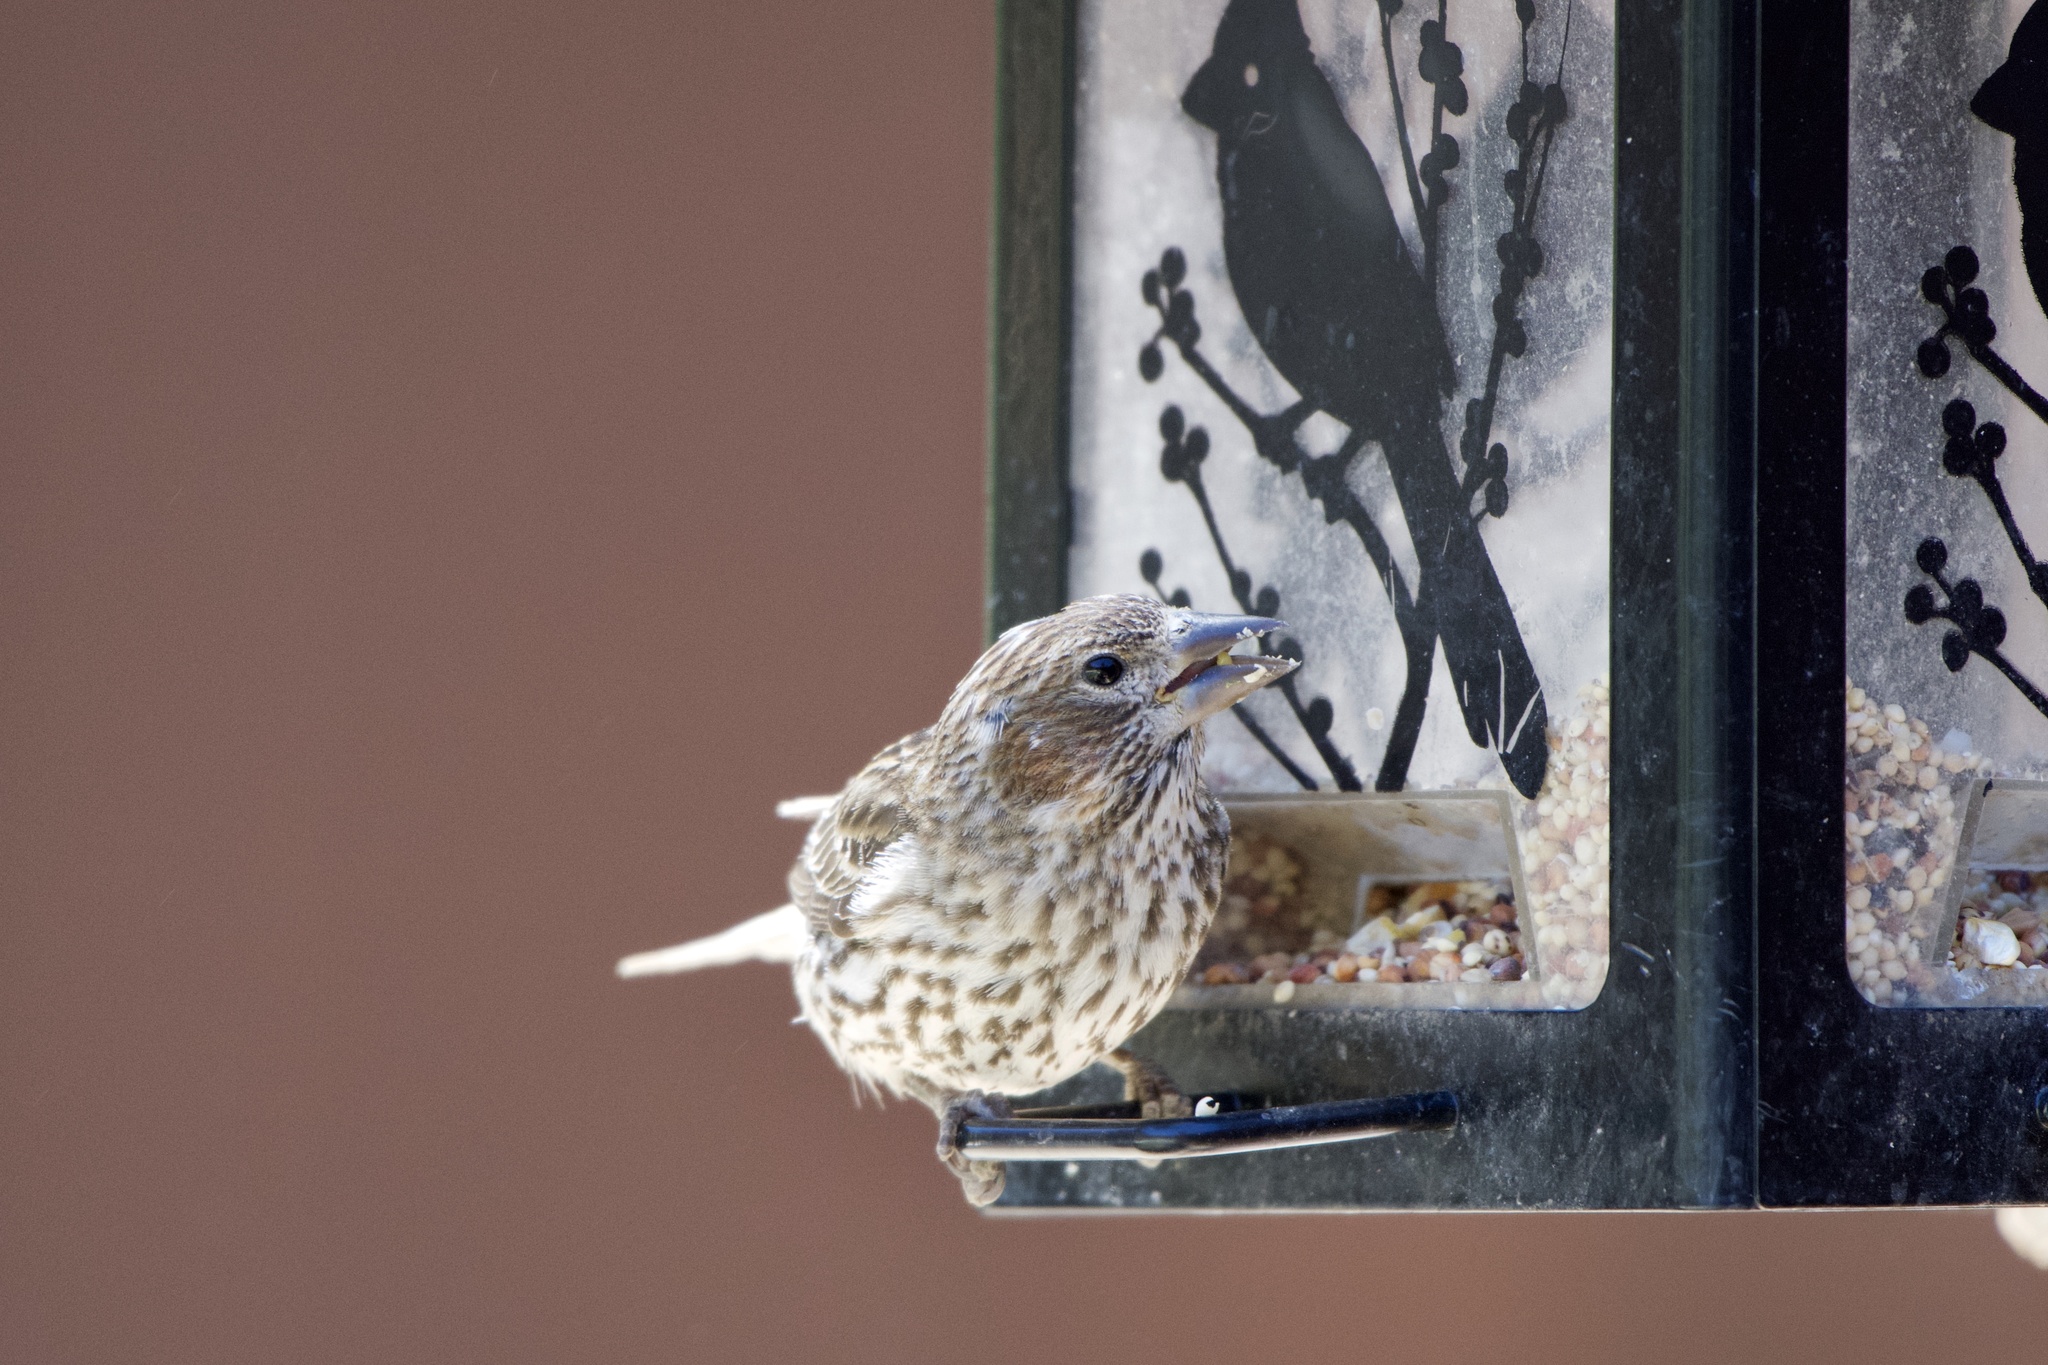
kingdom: Animalia
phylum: Chordata
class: Aves
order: Passeriformes
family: Fringillidae
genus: Haemorhous
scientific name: Haemorhous cassinii
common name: Cassin's finch
